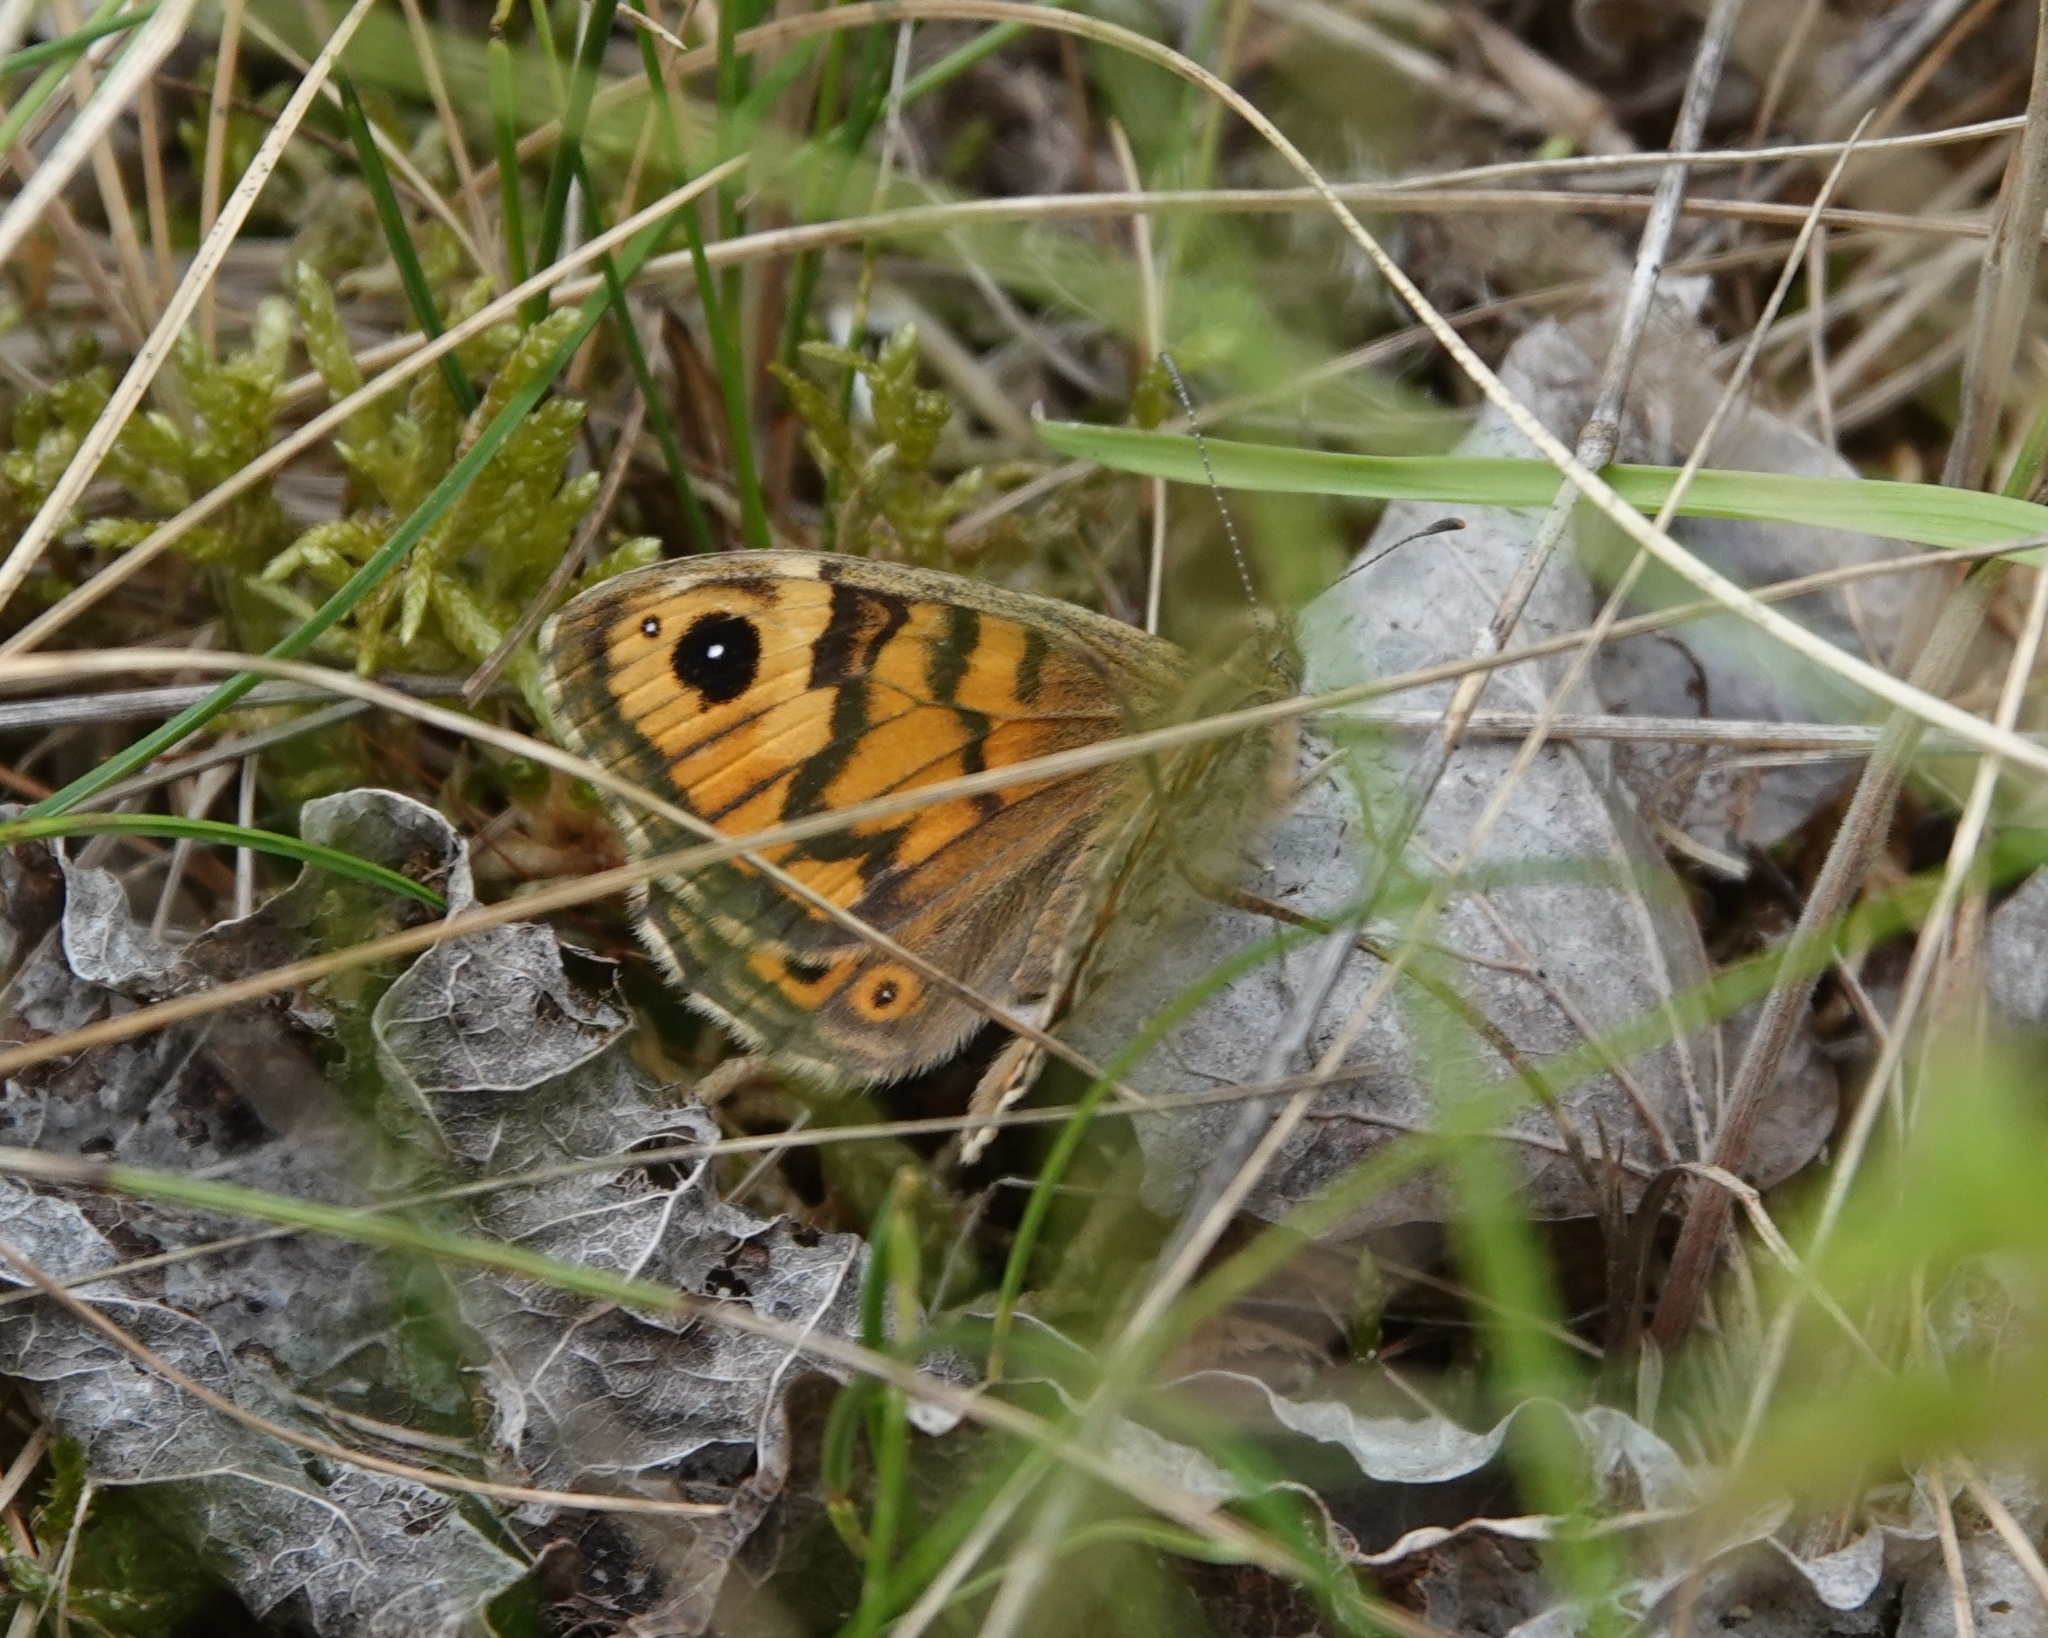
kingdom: Animalia
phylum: Arthropoda
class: Insecta
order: Lepidoptera
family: Nymphalidae
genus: Pararge
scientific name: Pararge Lasiommata megera
